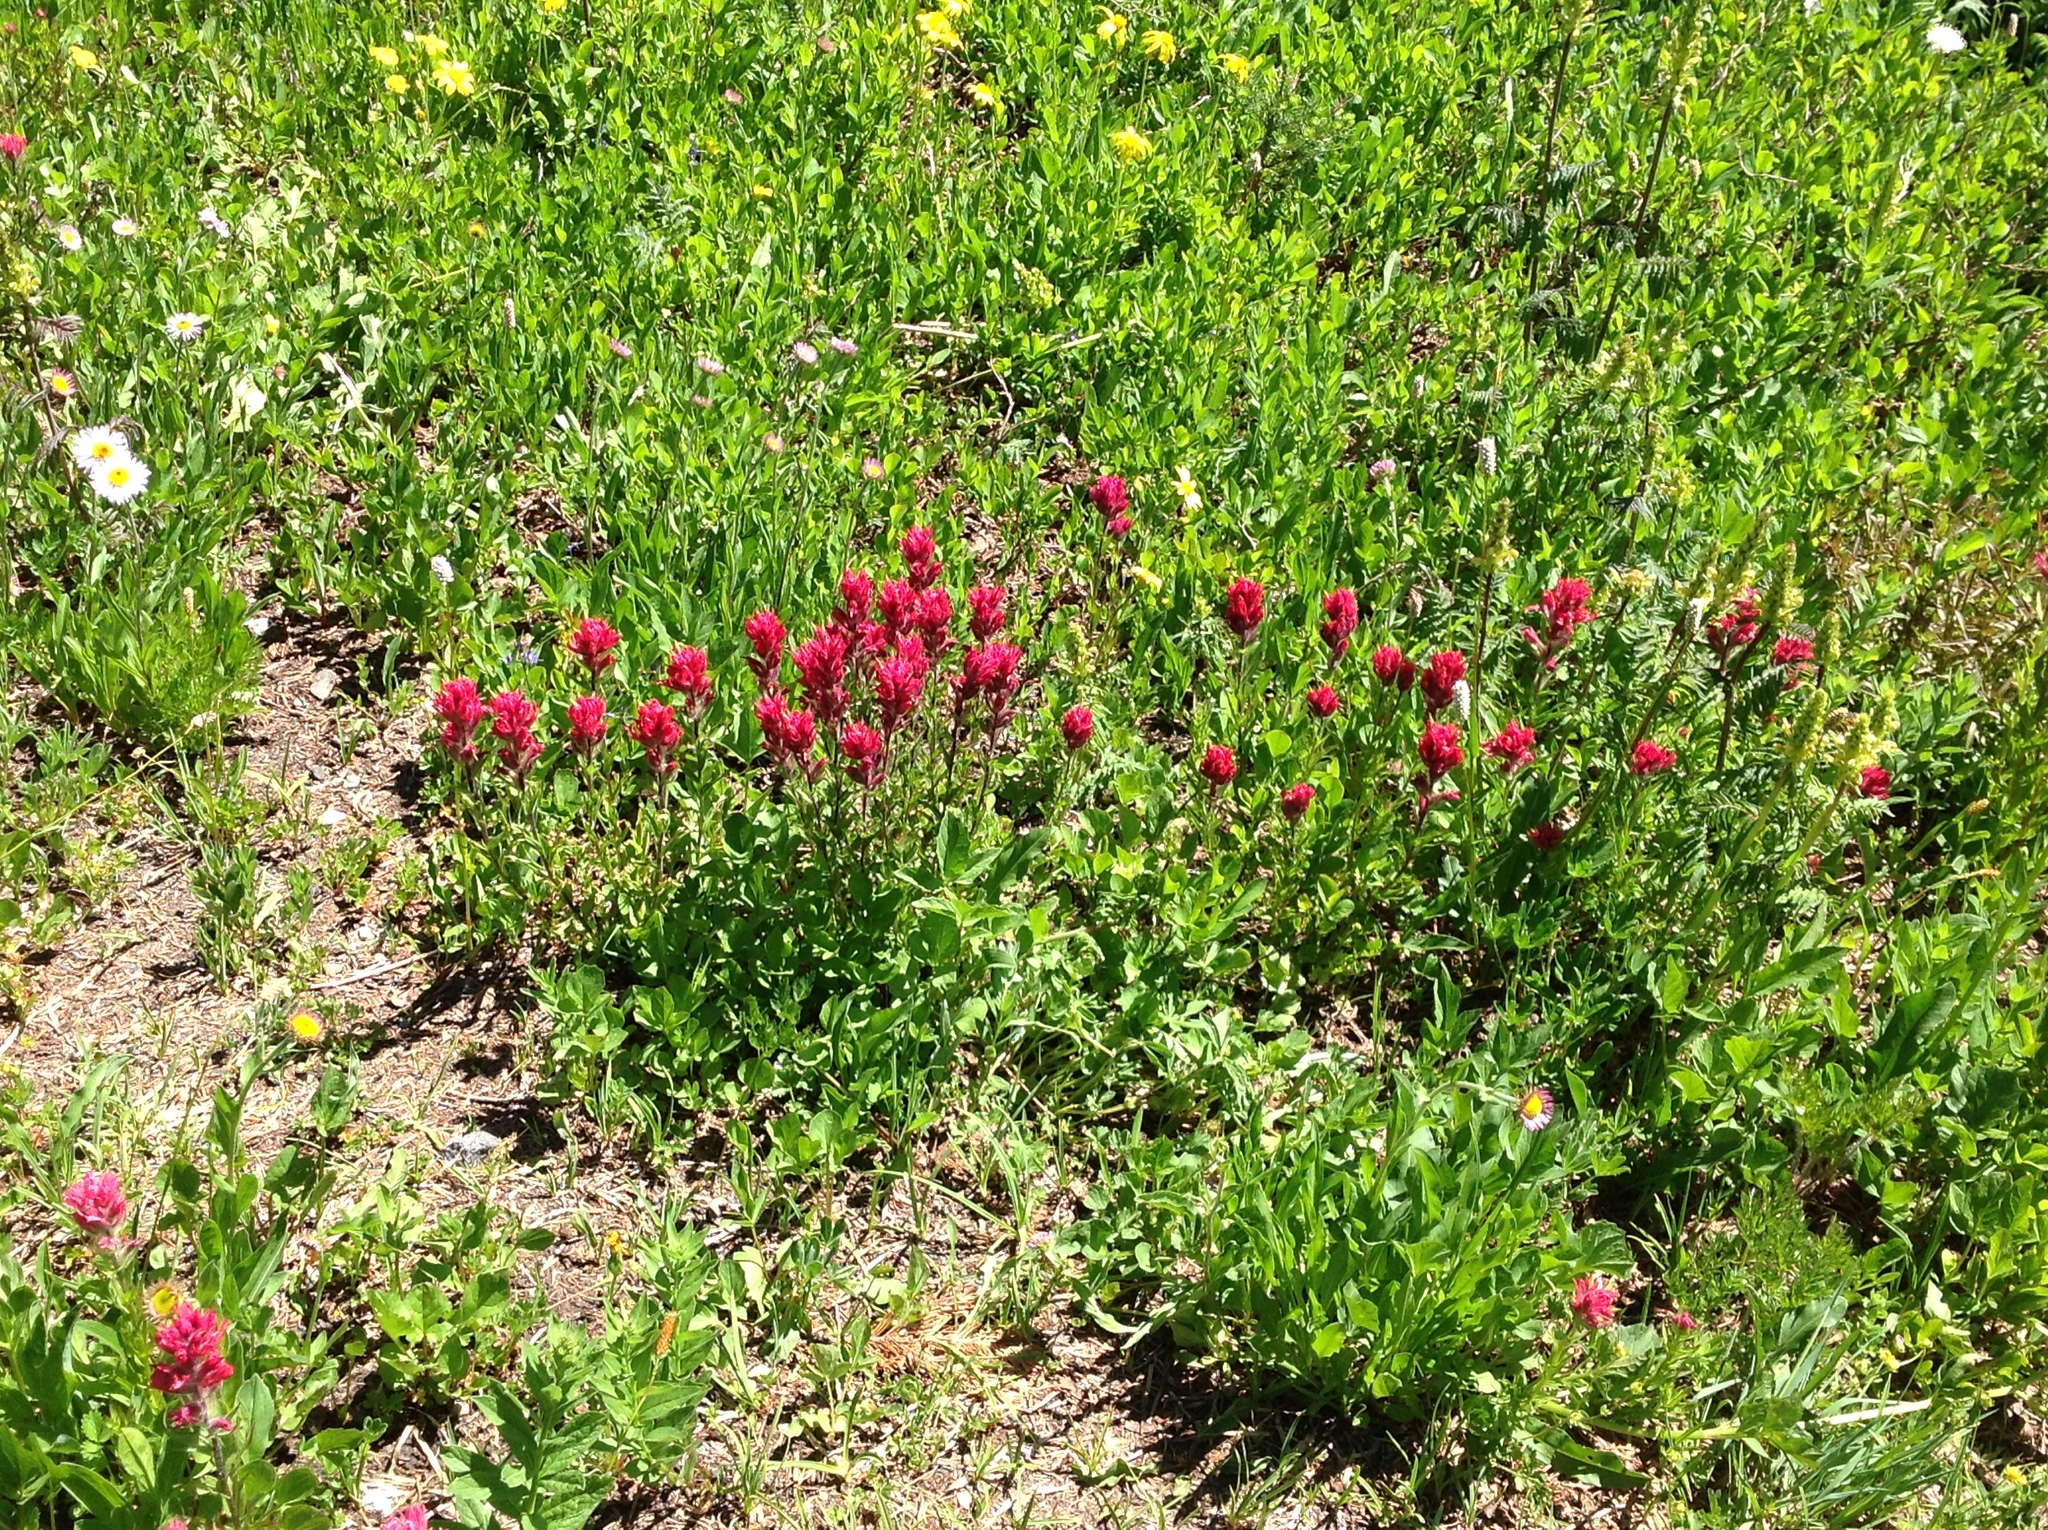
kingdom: Plantae
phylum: Tracheophyta
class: Magnoliopsida
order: Lamiales
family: Orobanchaceae
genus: Castilleja
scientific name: Castilleja parviflora
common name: Mountain paintbrush
